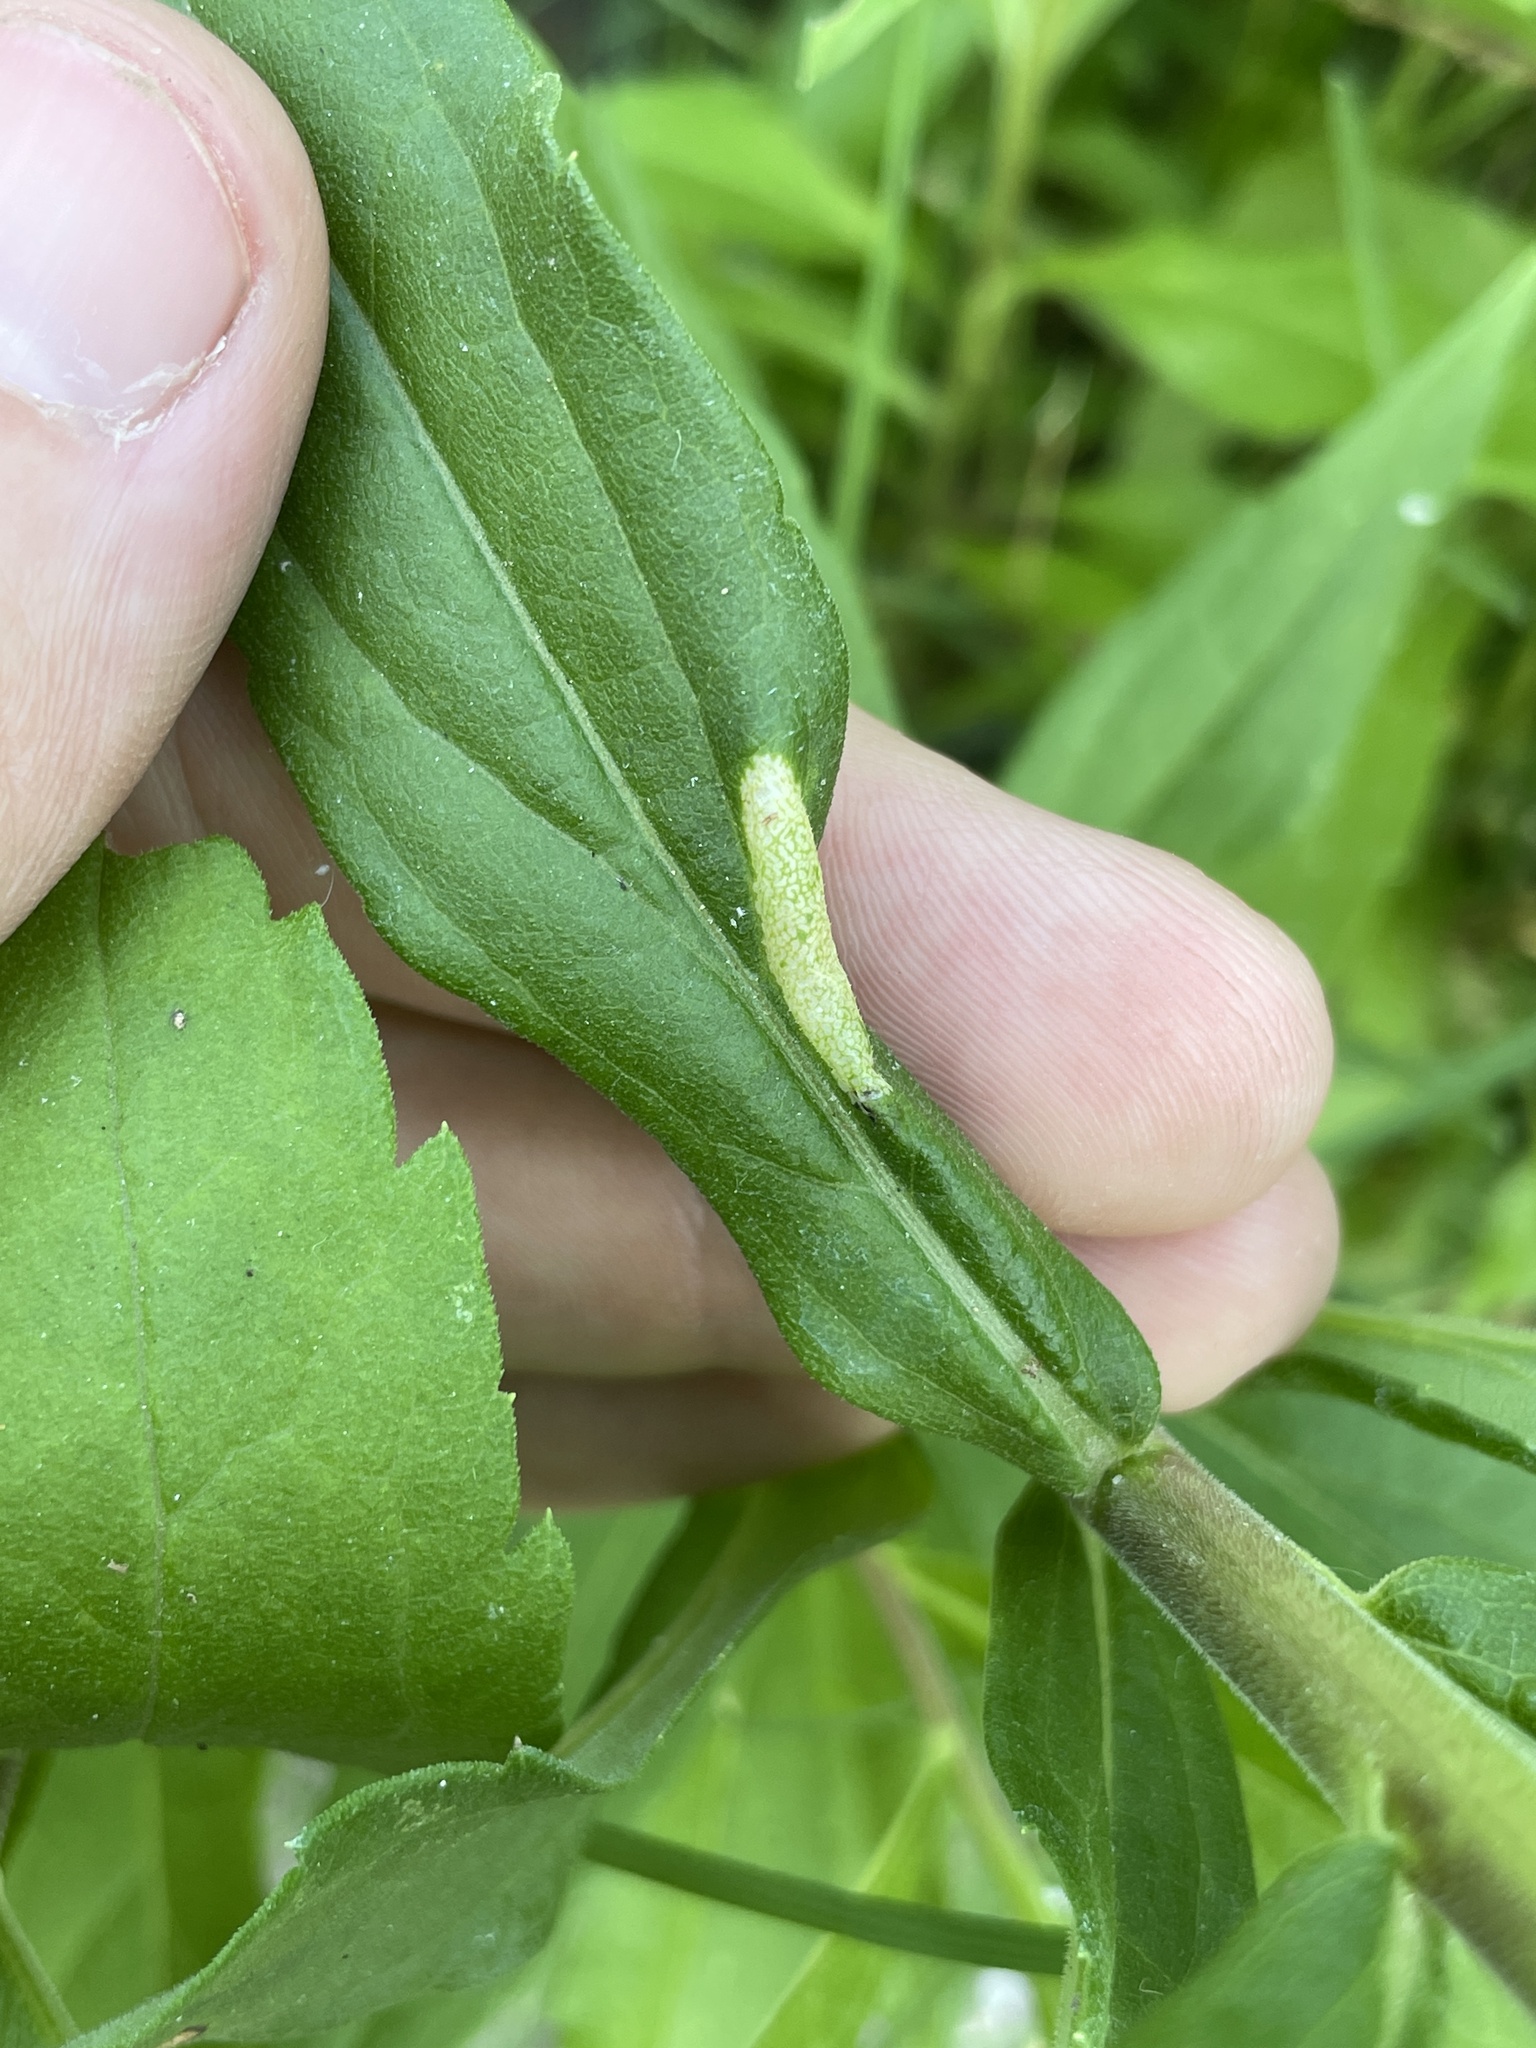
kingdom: Animalia
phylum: Arthropoda
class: Insecta
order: Lepidoptera
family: Gracillariidae
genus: Cremastobombycia
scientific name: Cremastobombycia solidaginis
